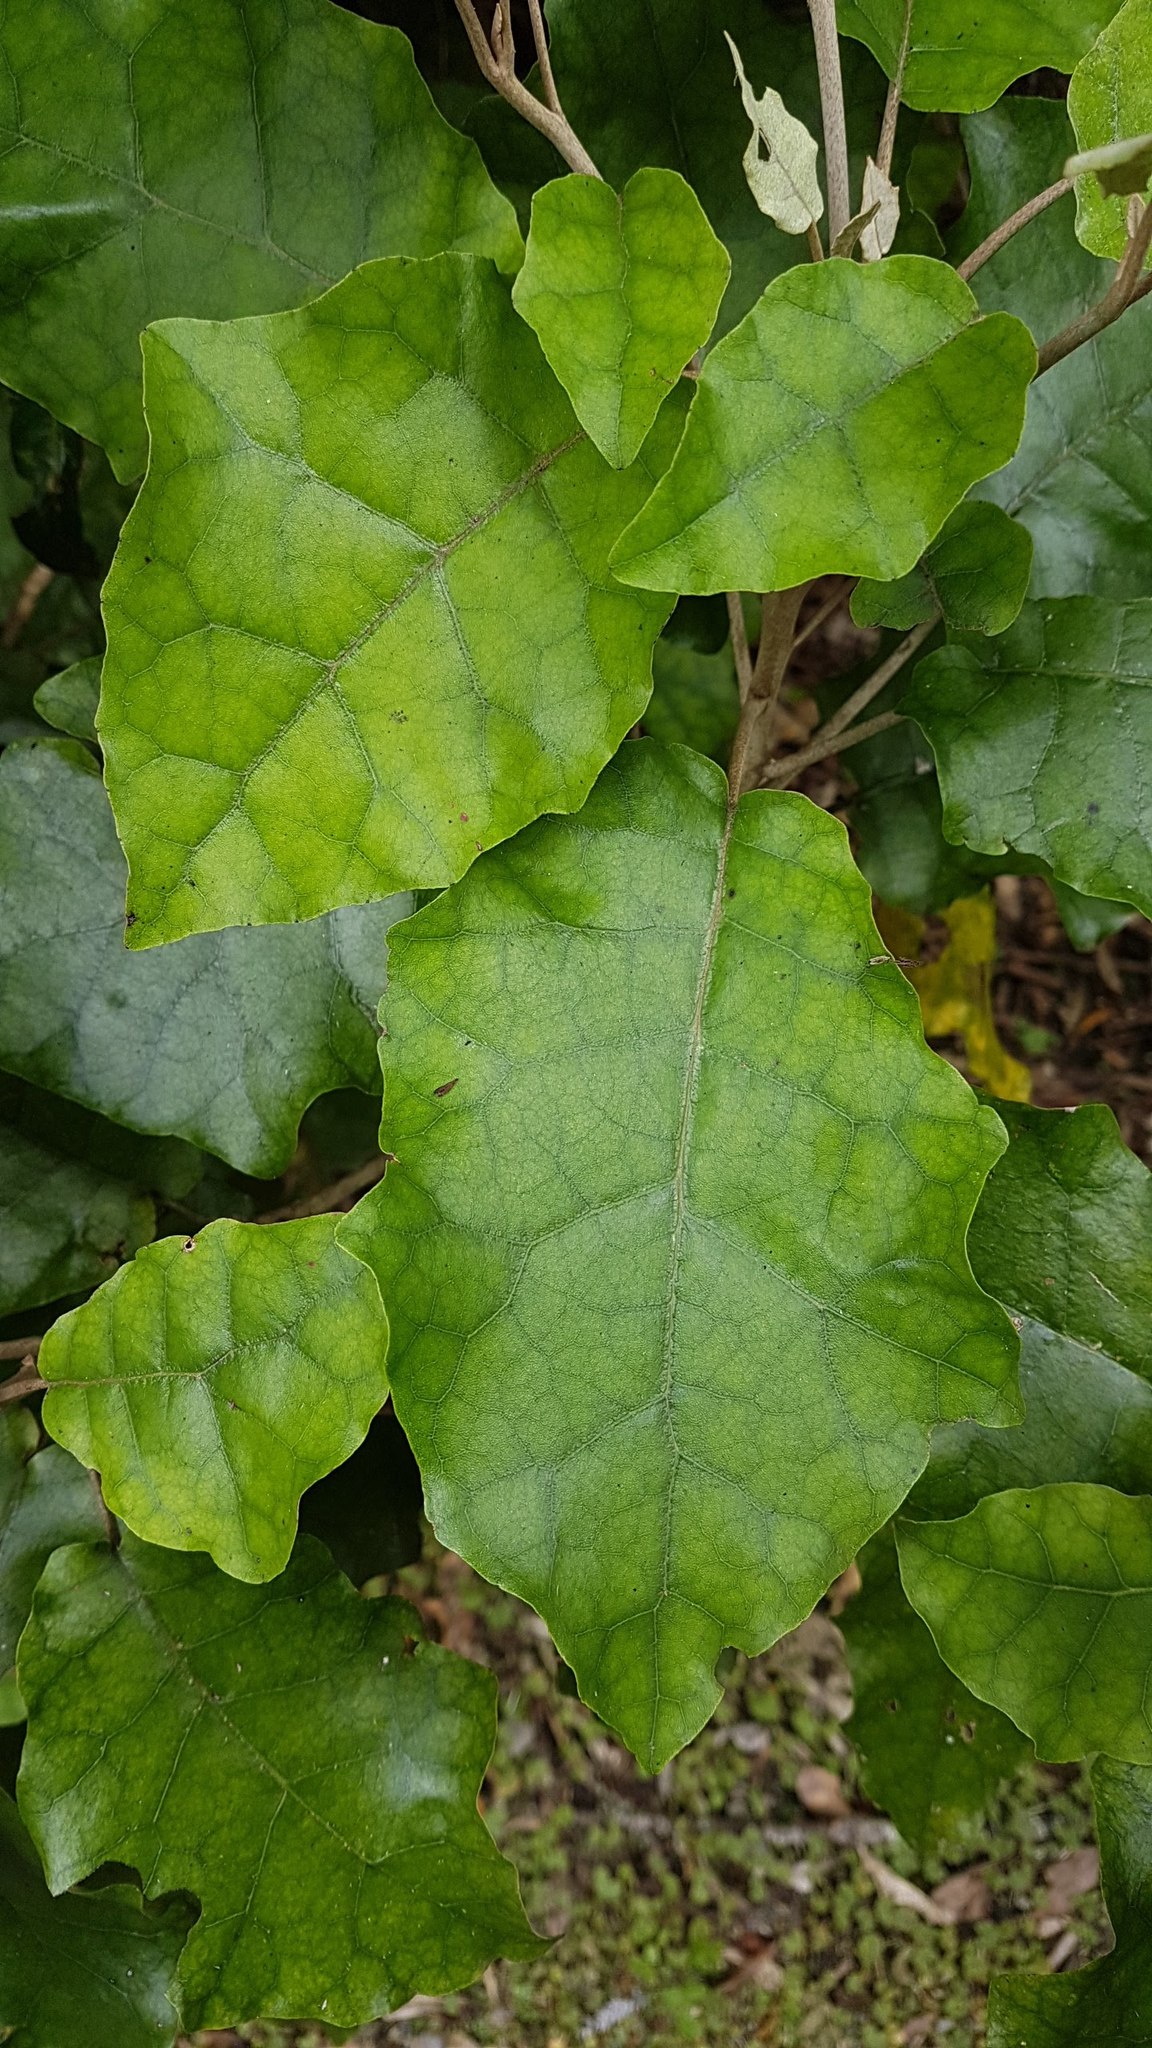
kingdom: Plantae
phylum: Tracheophyta
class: Magnoliopsida
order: Asterales
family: Asteraceae
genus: Brachyglottis
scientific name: Brachyglottis repanda
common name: Hedge ragwort
